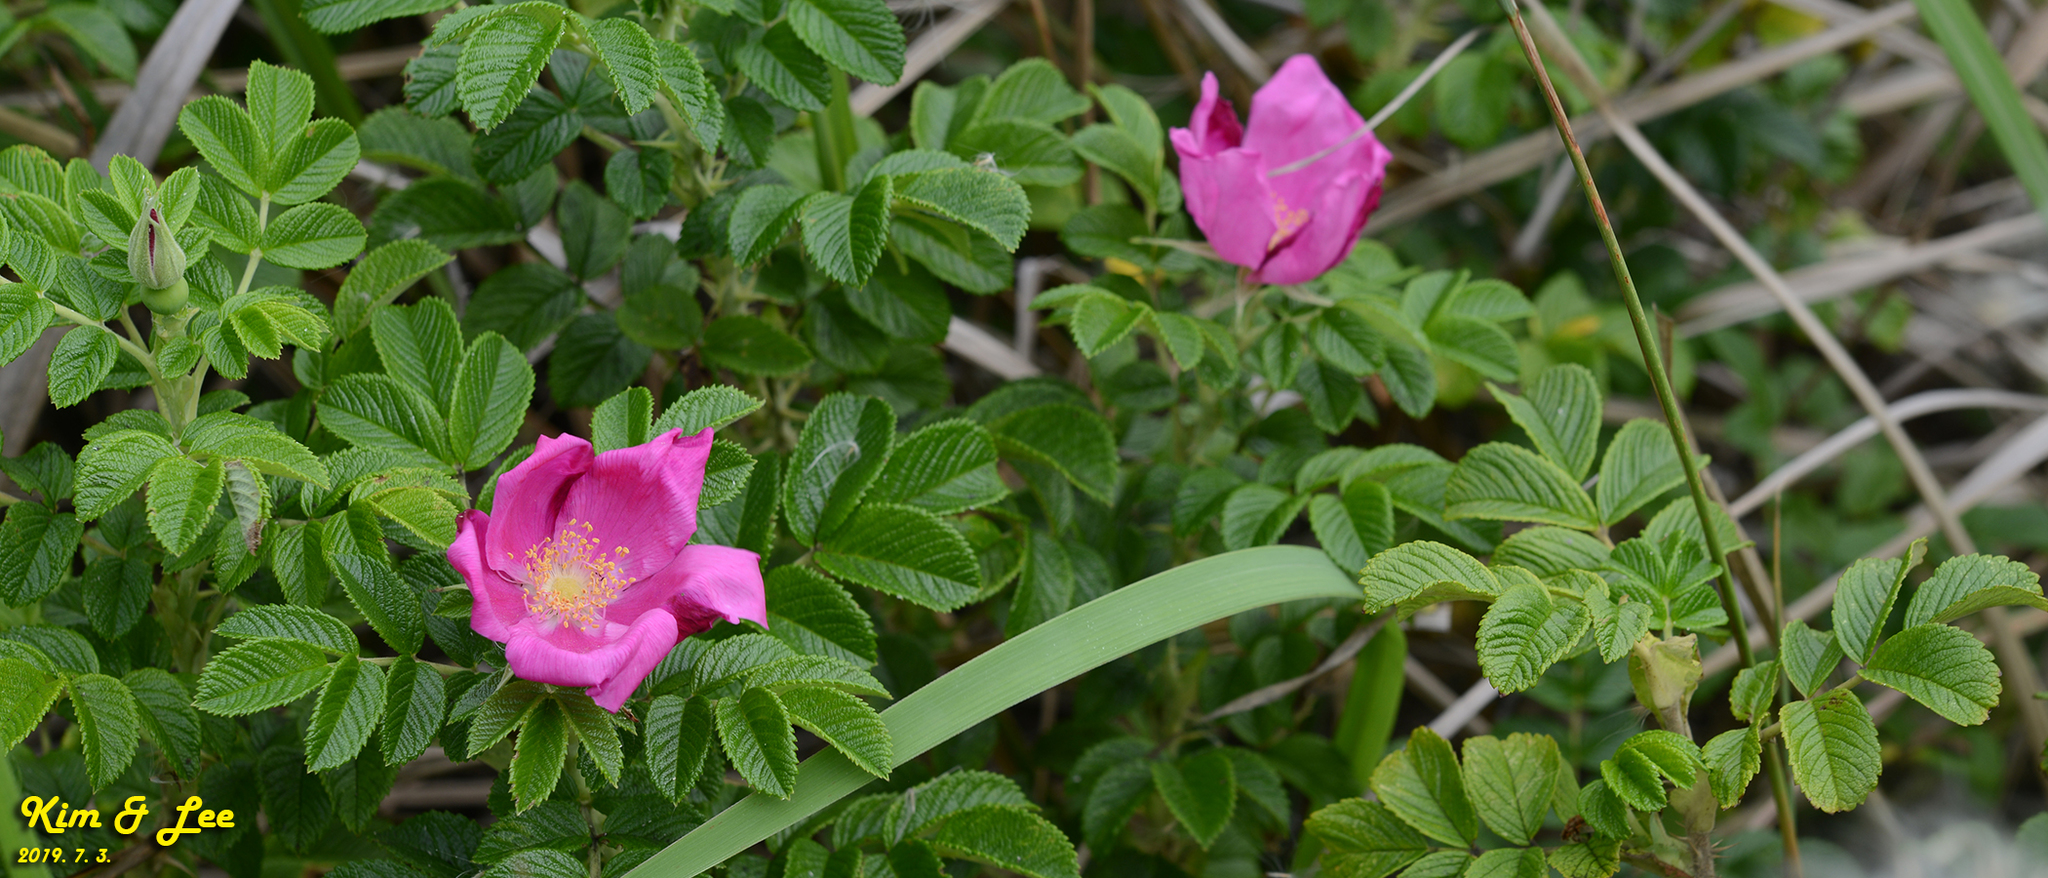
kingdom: Plantae
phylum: Tracheophyta
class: Magnoliopsida
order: Rosales
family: Rosaceae
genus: Rosa
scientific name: Rosa rugosa
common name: Japanese rose
